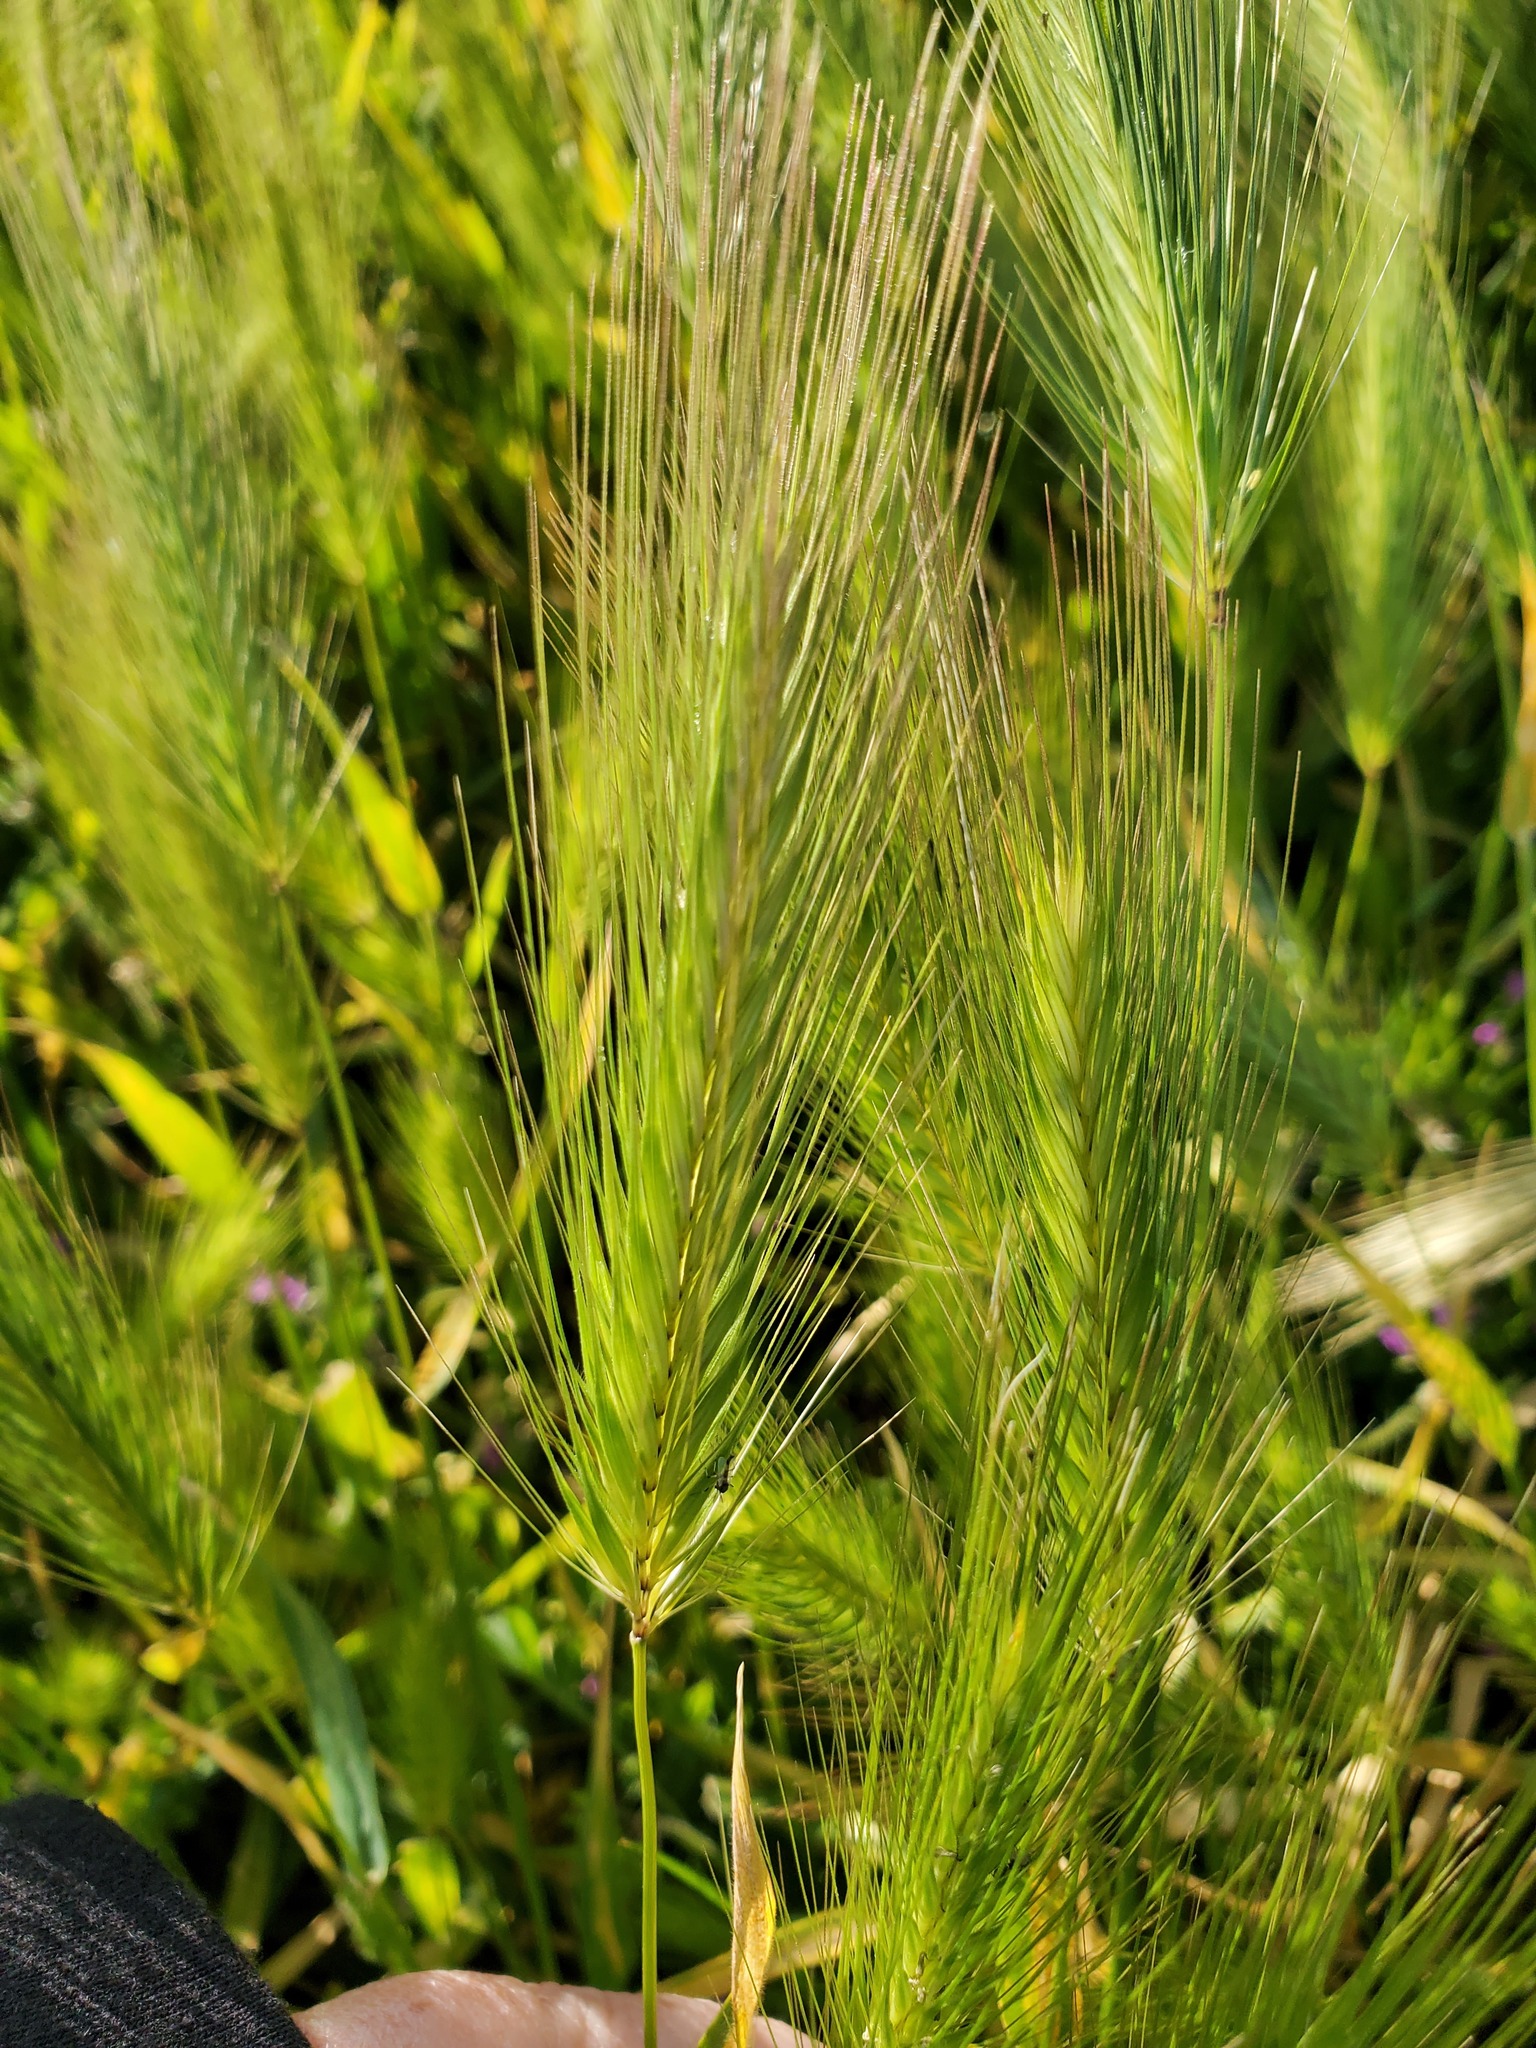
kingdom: Plantae
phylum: Tracheophyta
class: Liliopsida
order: Poales
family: Poaceae
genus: Hordeum
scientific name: Hordeum murinum
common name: Wall barley
